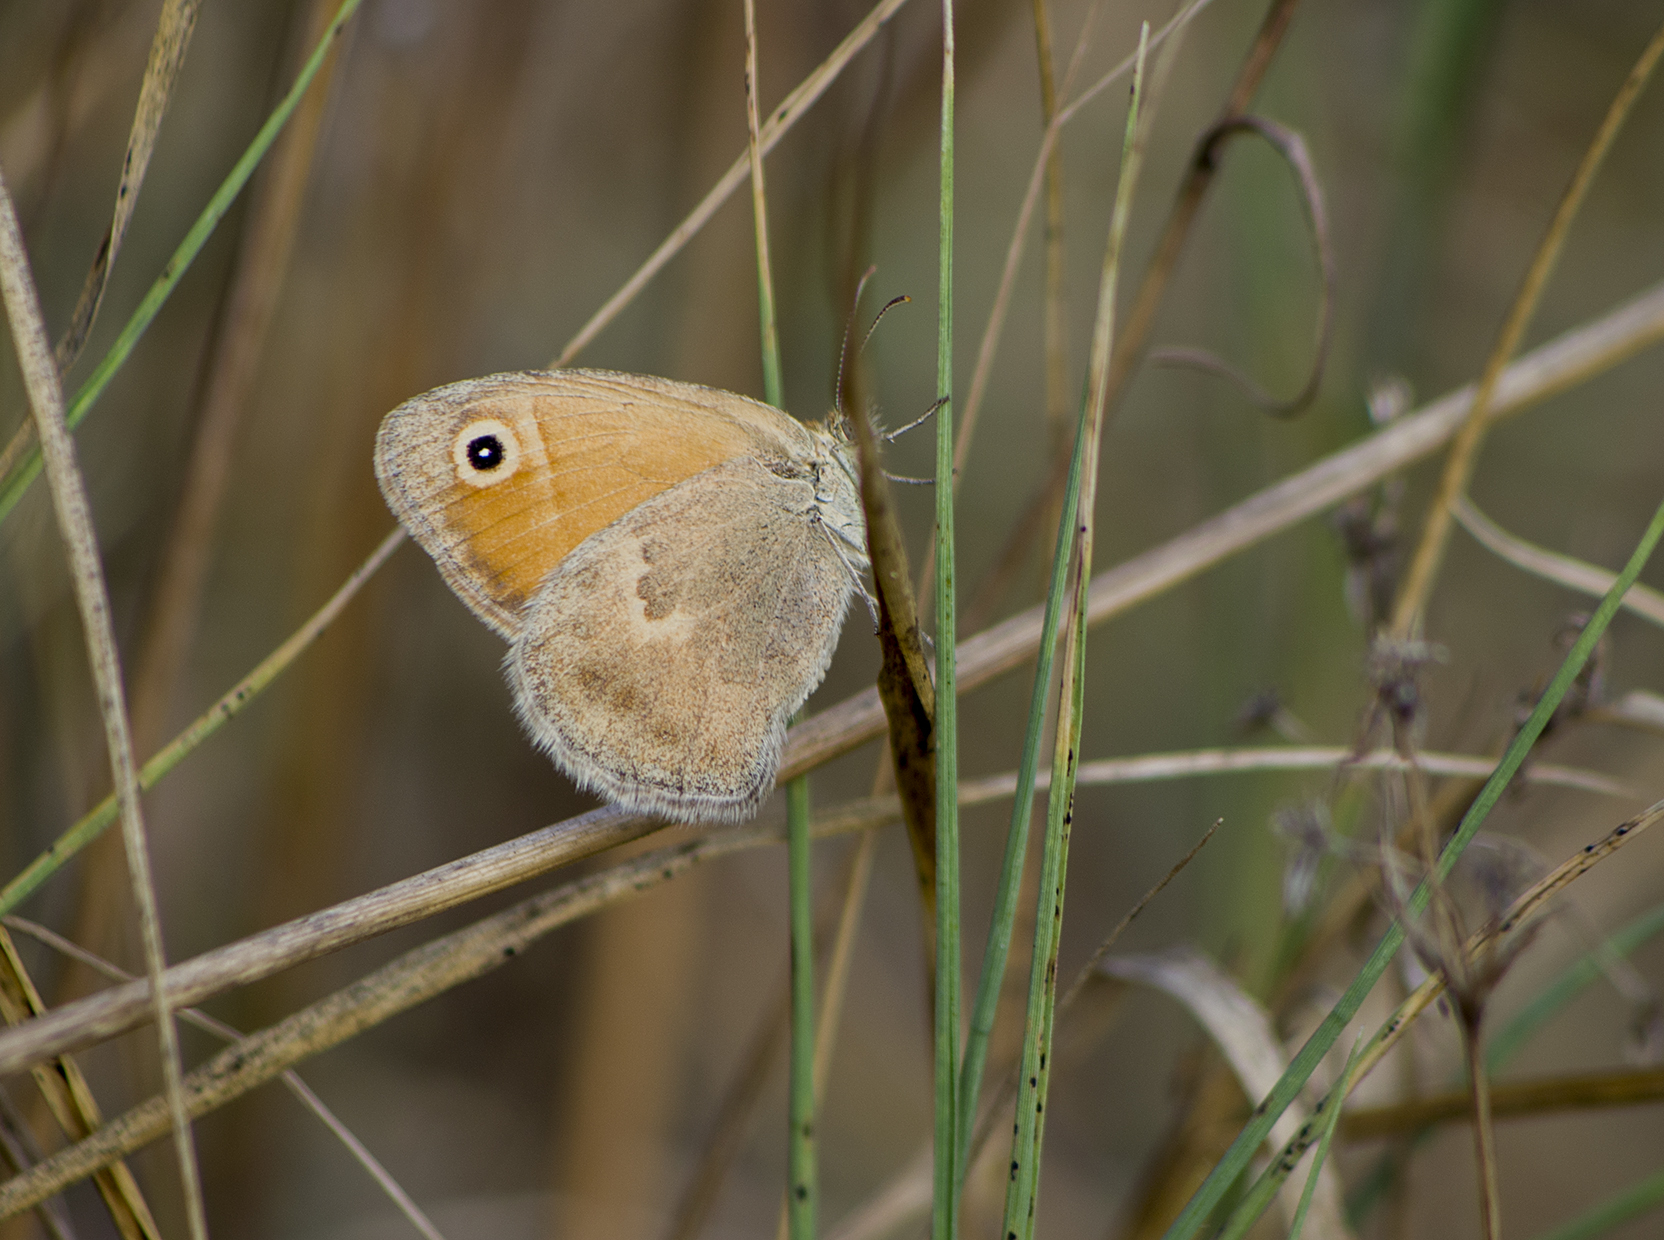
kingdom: Animalia
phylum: Arthropoda
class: Insecta
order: Lepidoptera
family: Nymphalidae
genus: Coenonympha
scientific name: Coenonympha pamphilus
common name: Small heath
